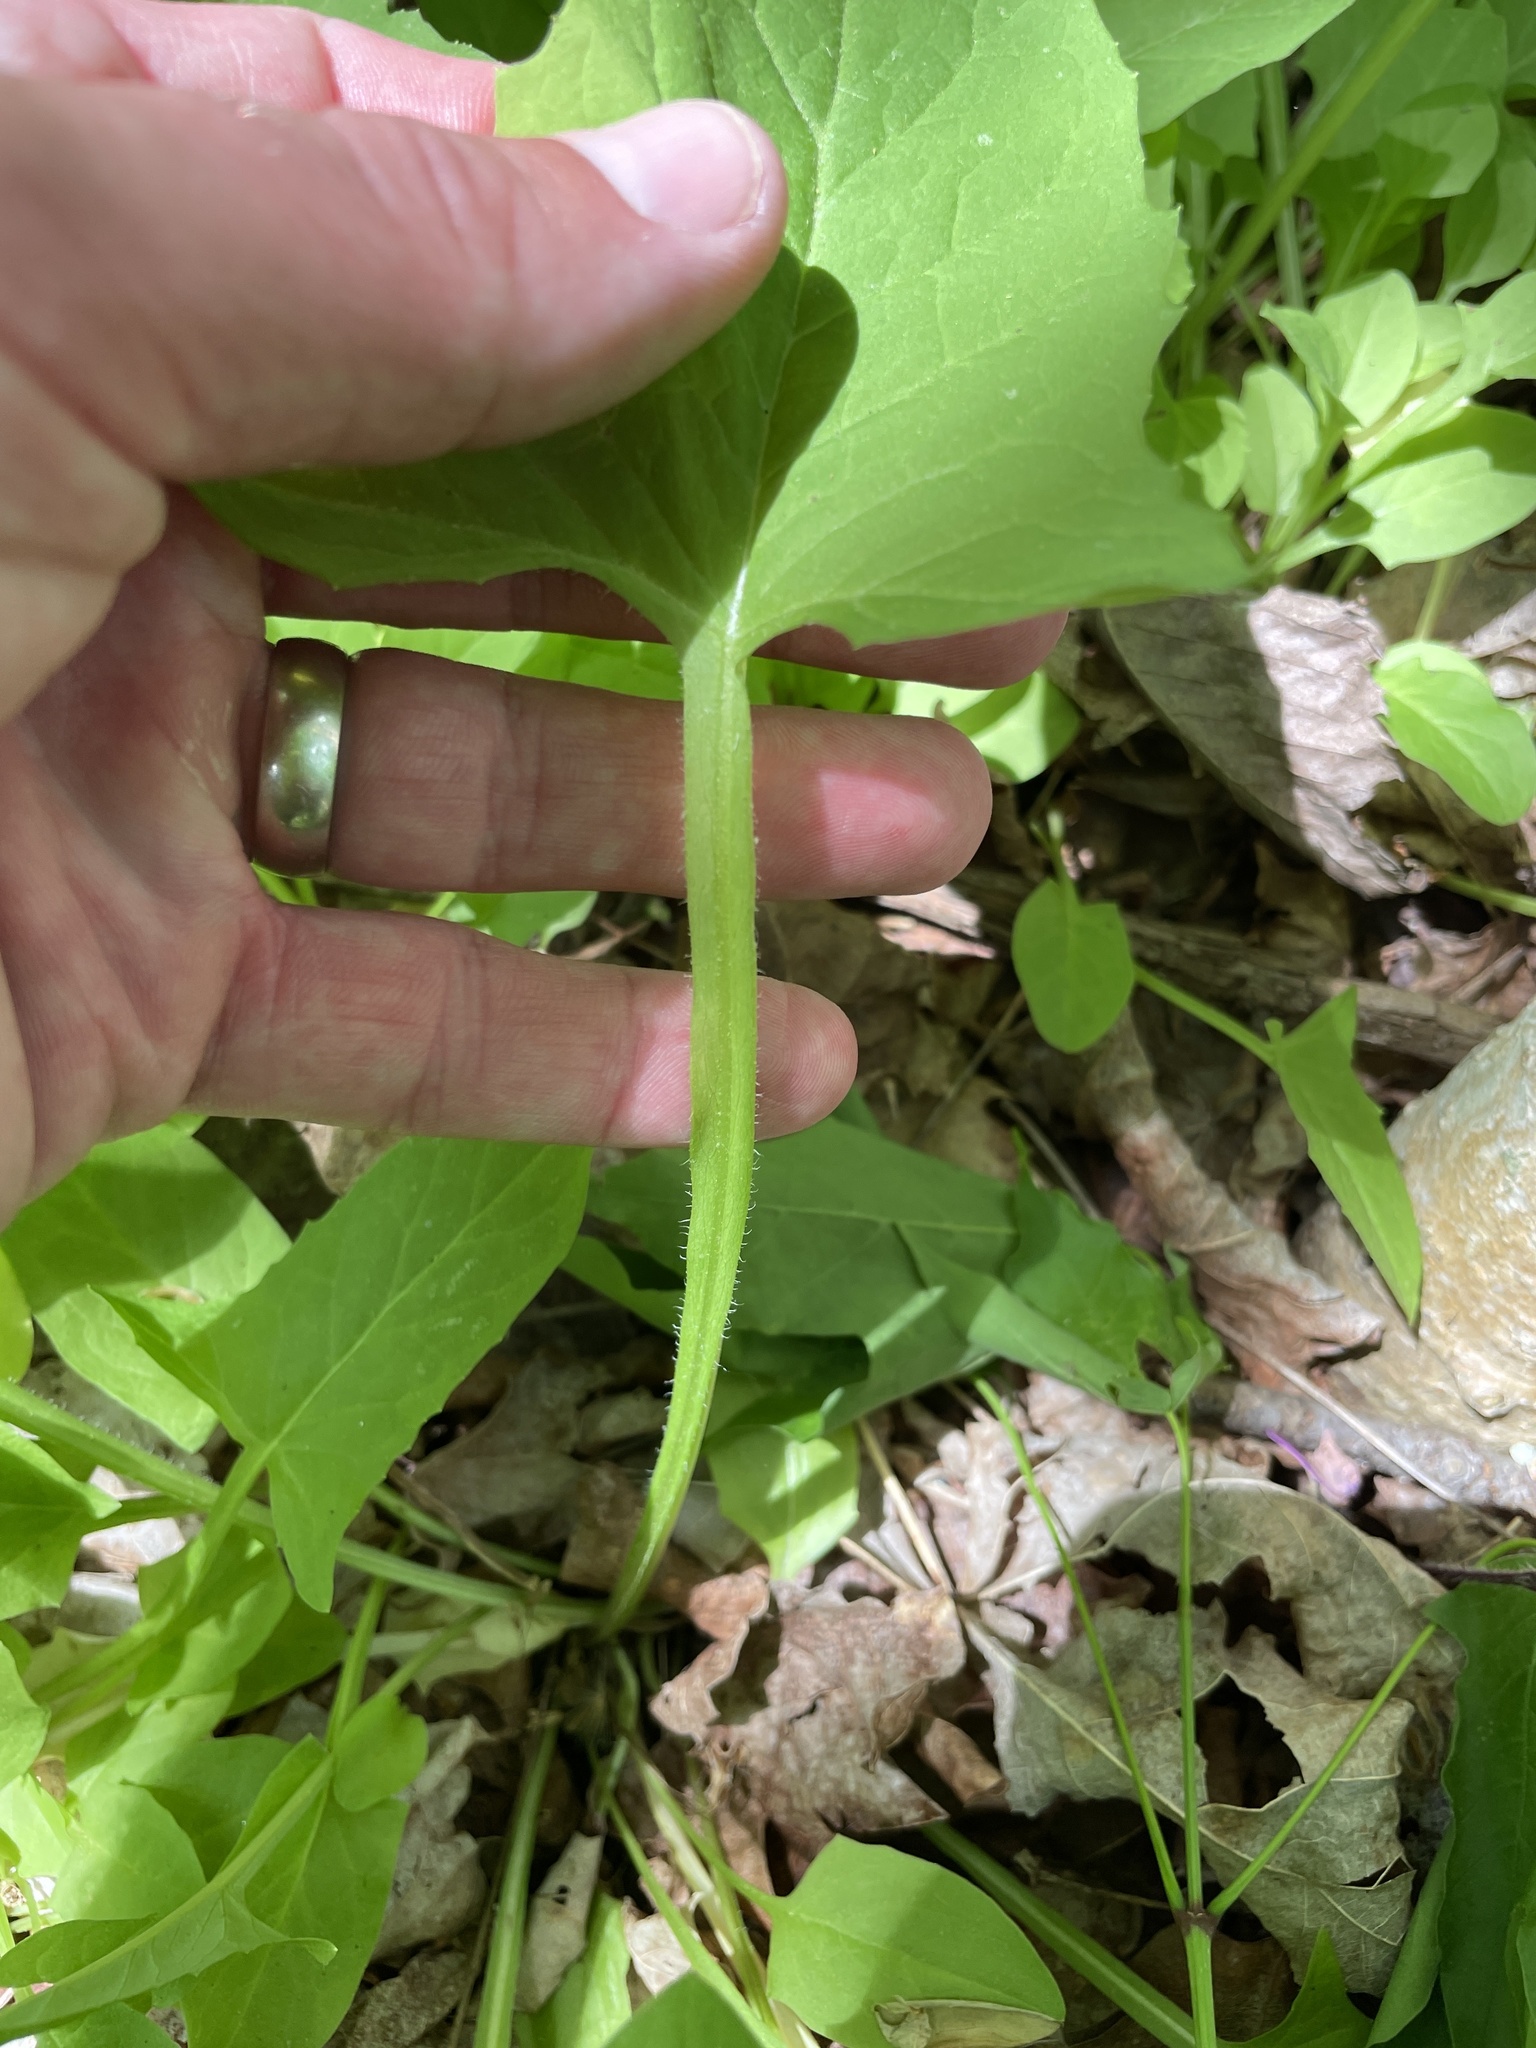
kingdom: Plantae
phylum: Tracheophyta
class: Magnoliopsida
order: Asterales
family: Asteraceae
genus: Nabalus
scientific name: Nabalus crepidineus
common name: Nodding rattlesnakeroot
